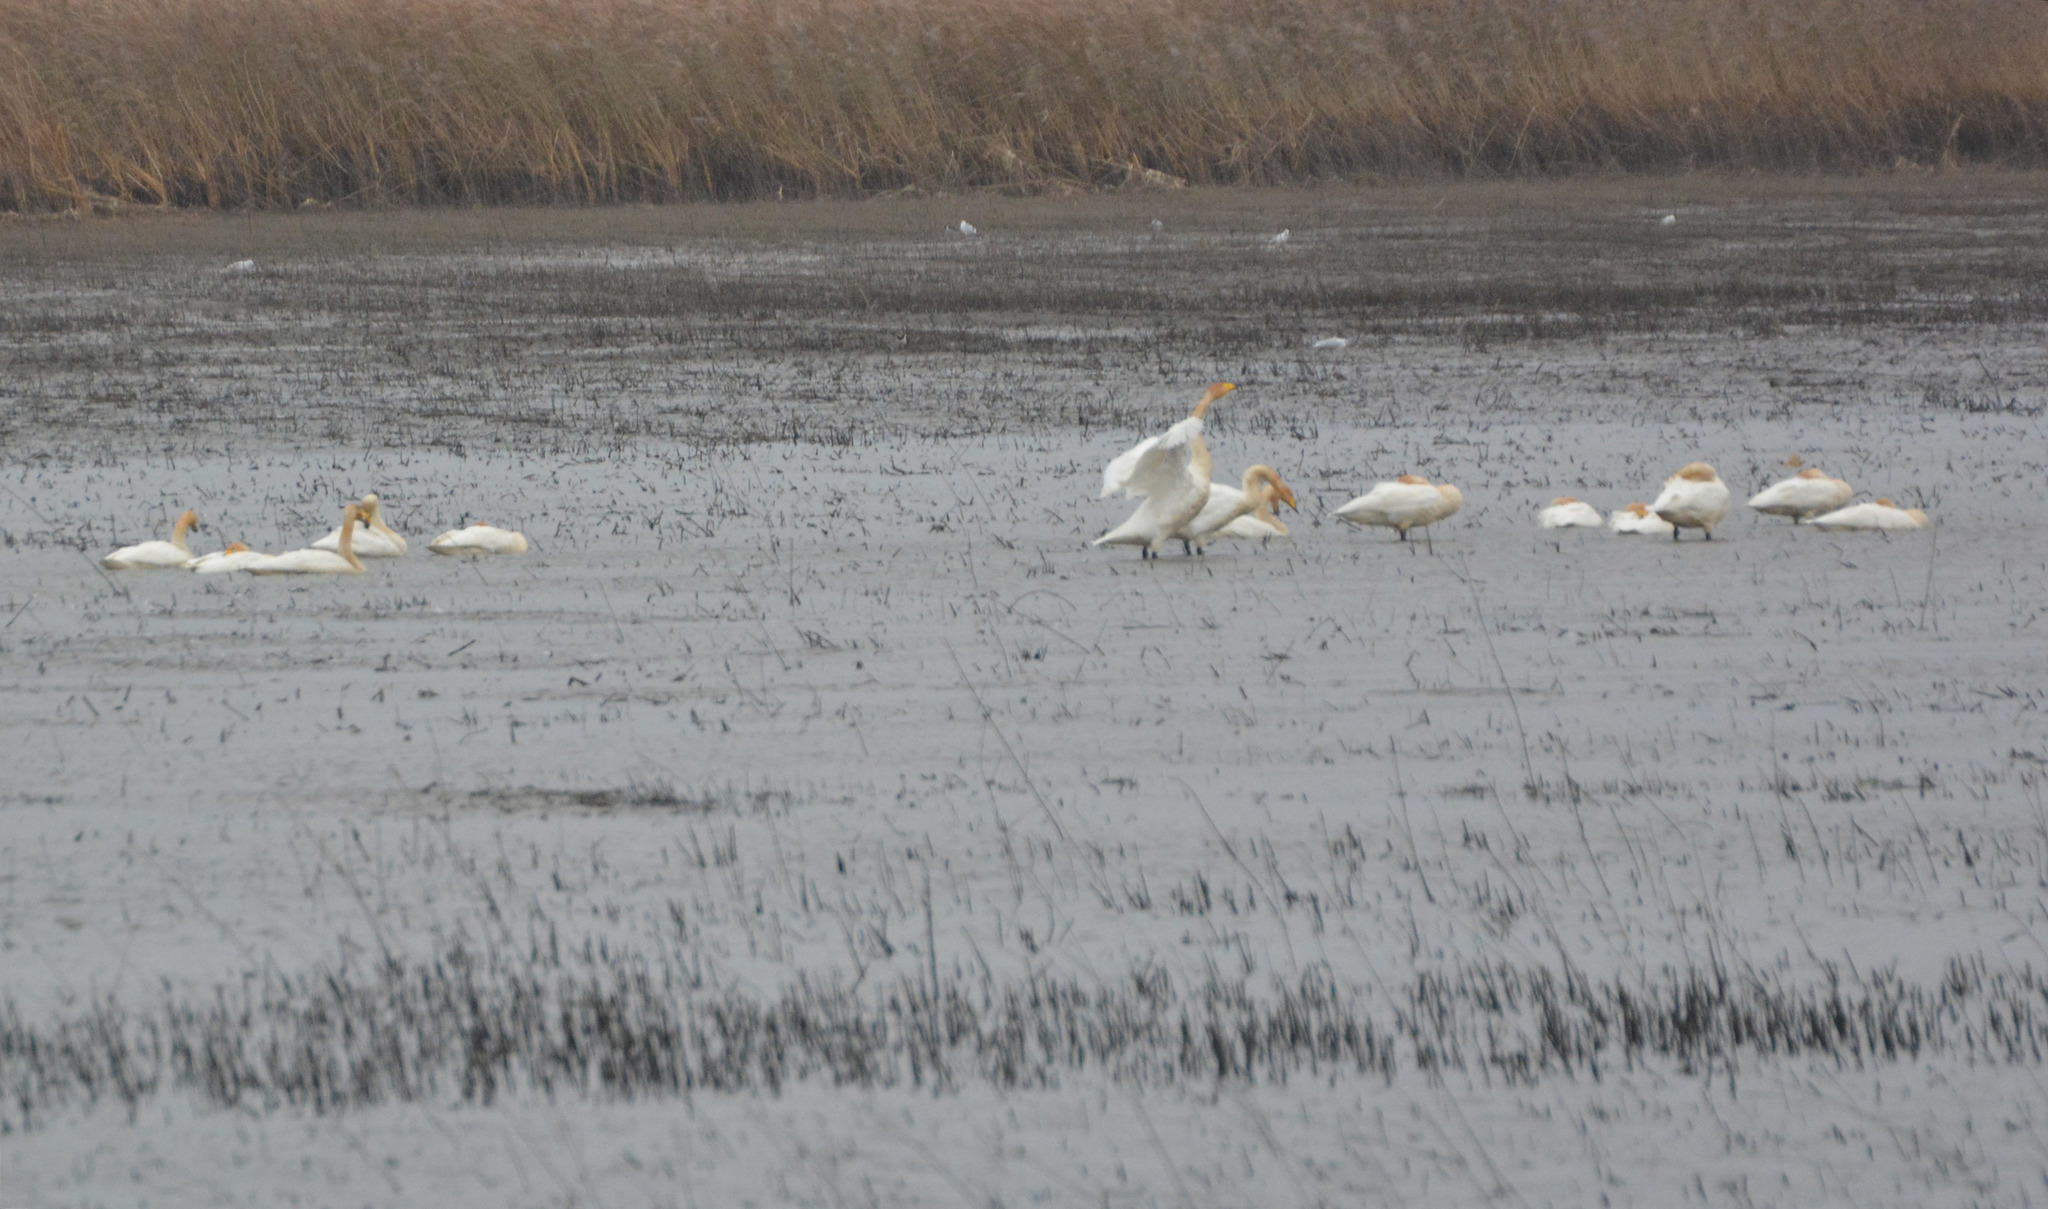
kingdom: Animalia
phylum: Chordata
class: Aves
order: Anseriformes
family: Anatidae
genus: Cygnus
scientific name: Cygnus cygnus
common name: Whooper swan
